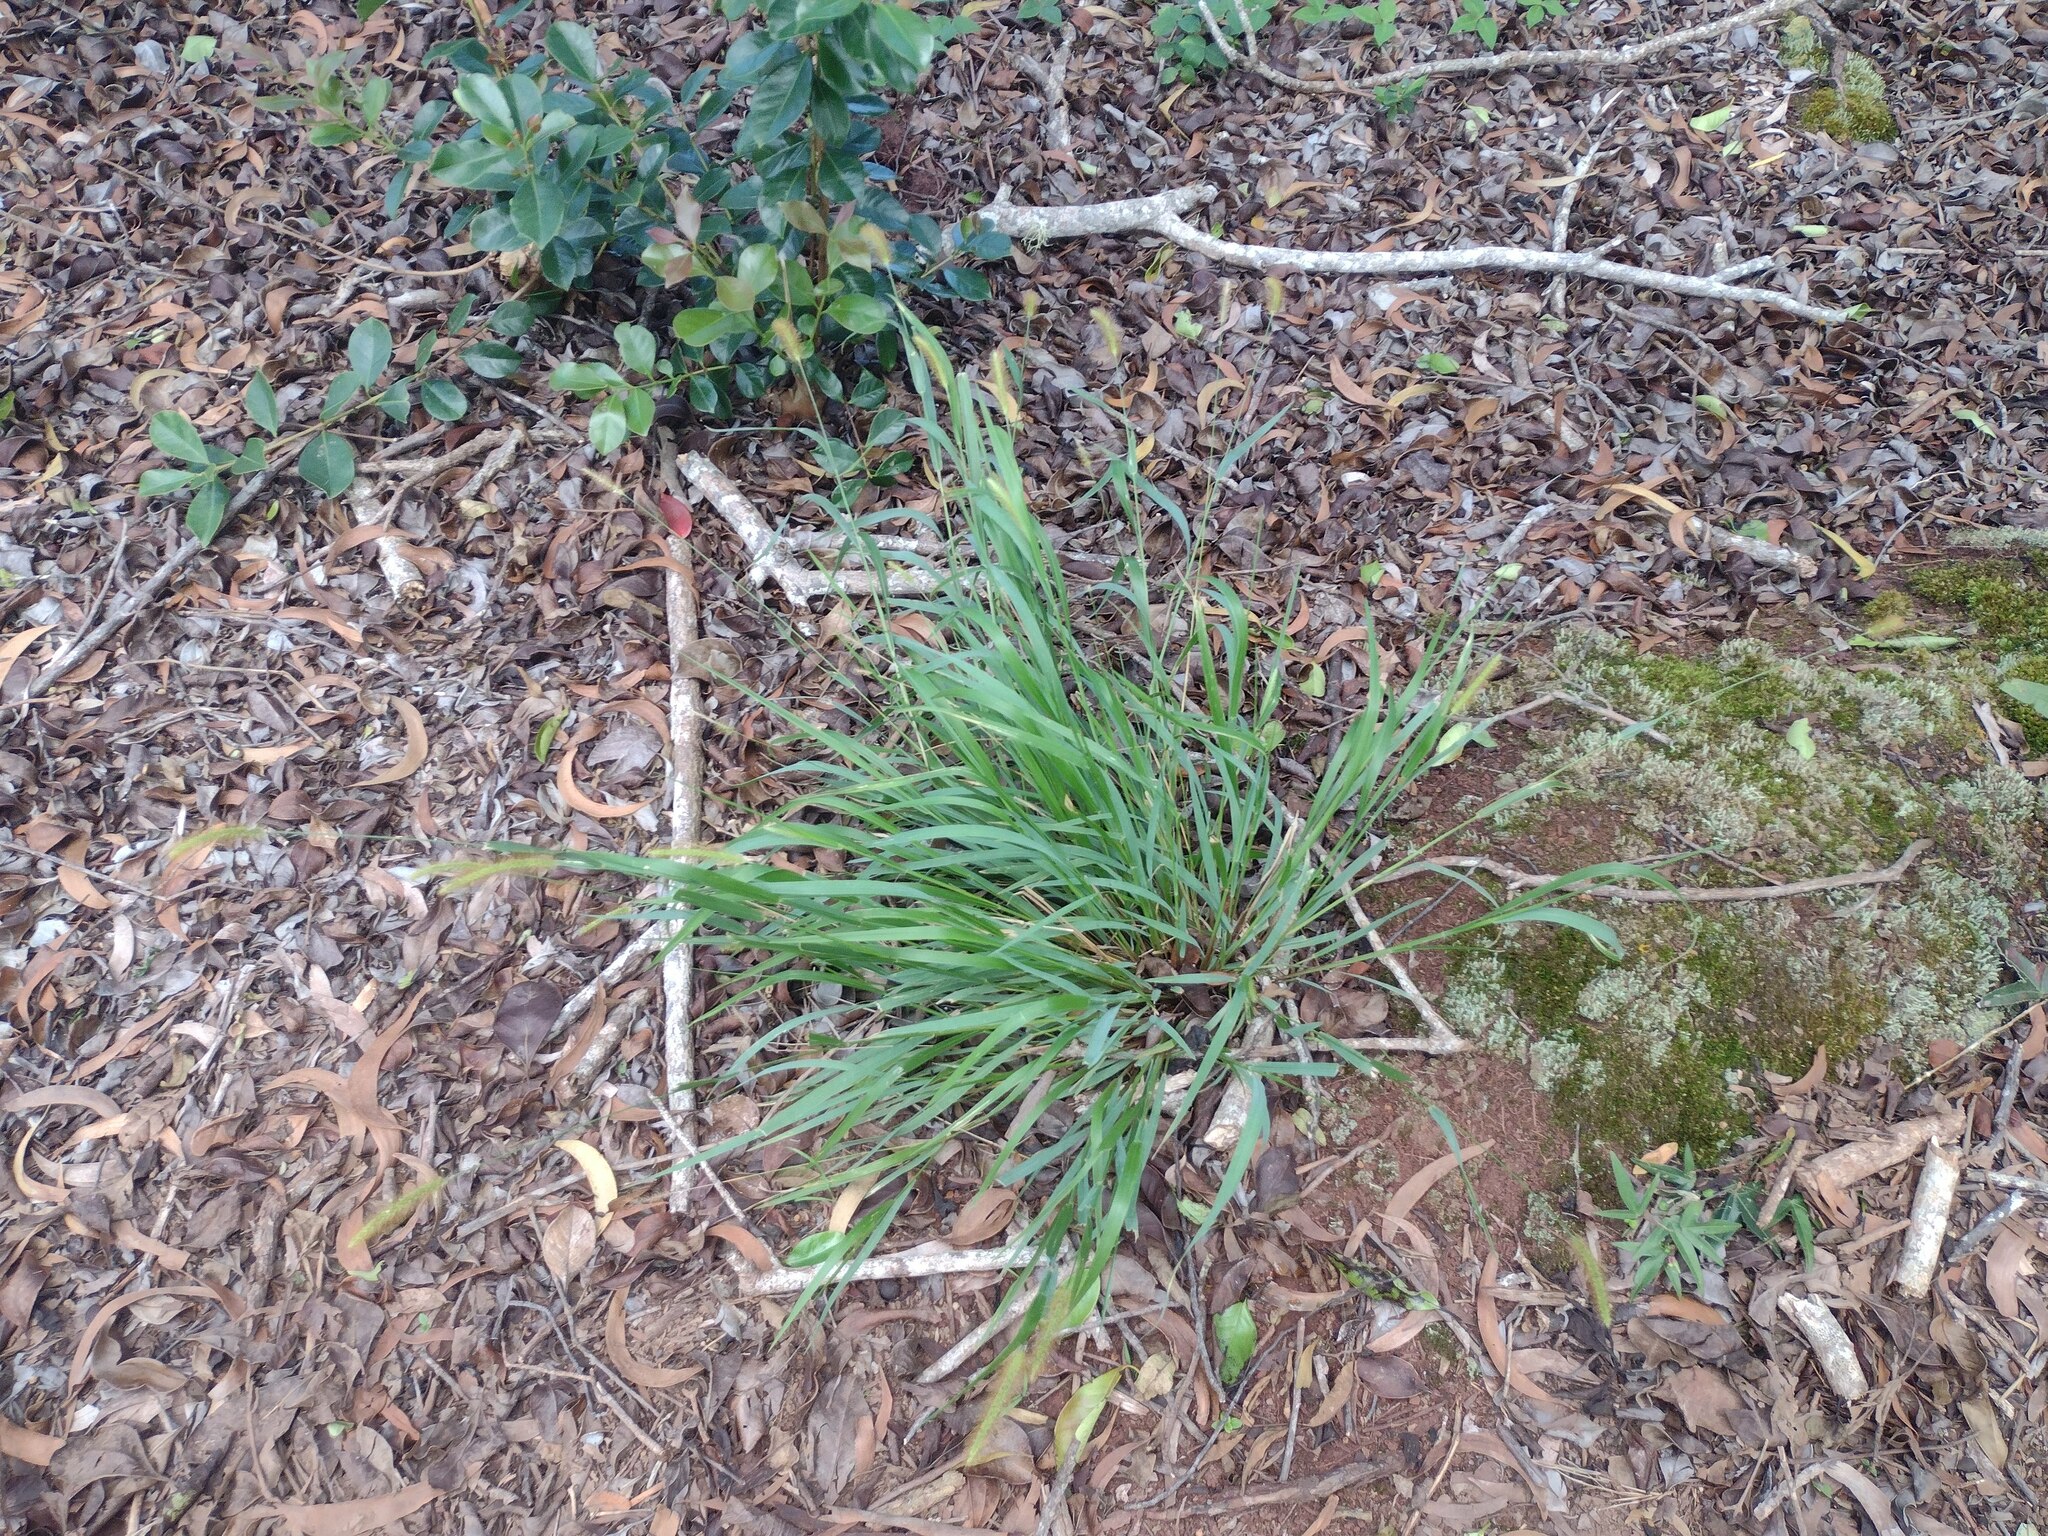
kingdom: Plantae
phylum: Tracheophyta
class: Liliopsida
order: Poales
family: Poaceae
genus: Setaria
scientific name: Setaria parviflora
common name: Knotroot bristle-grass
